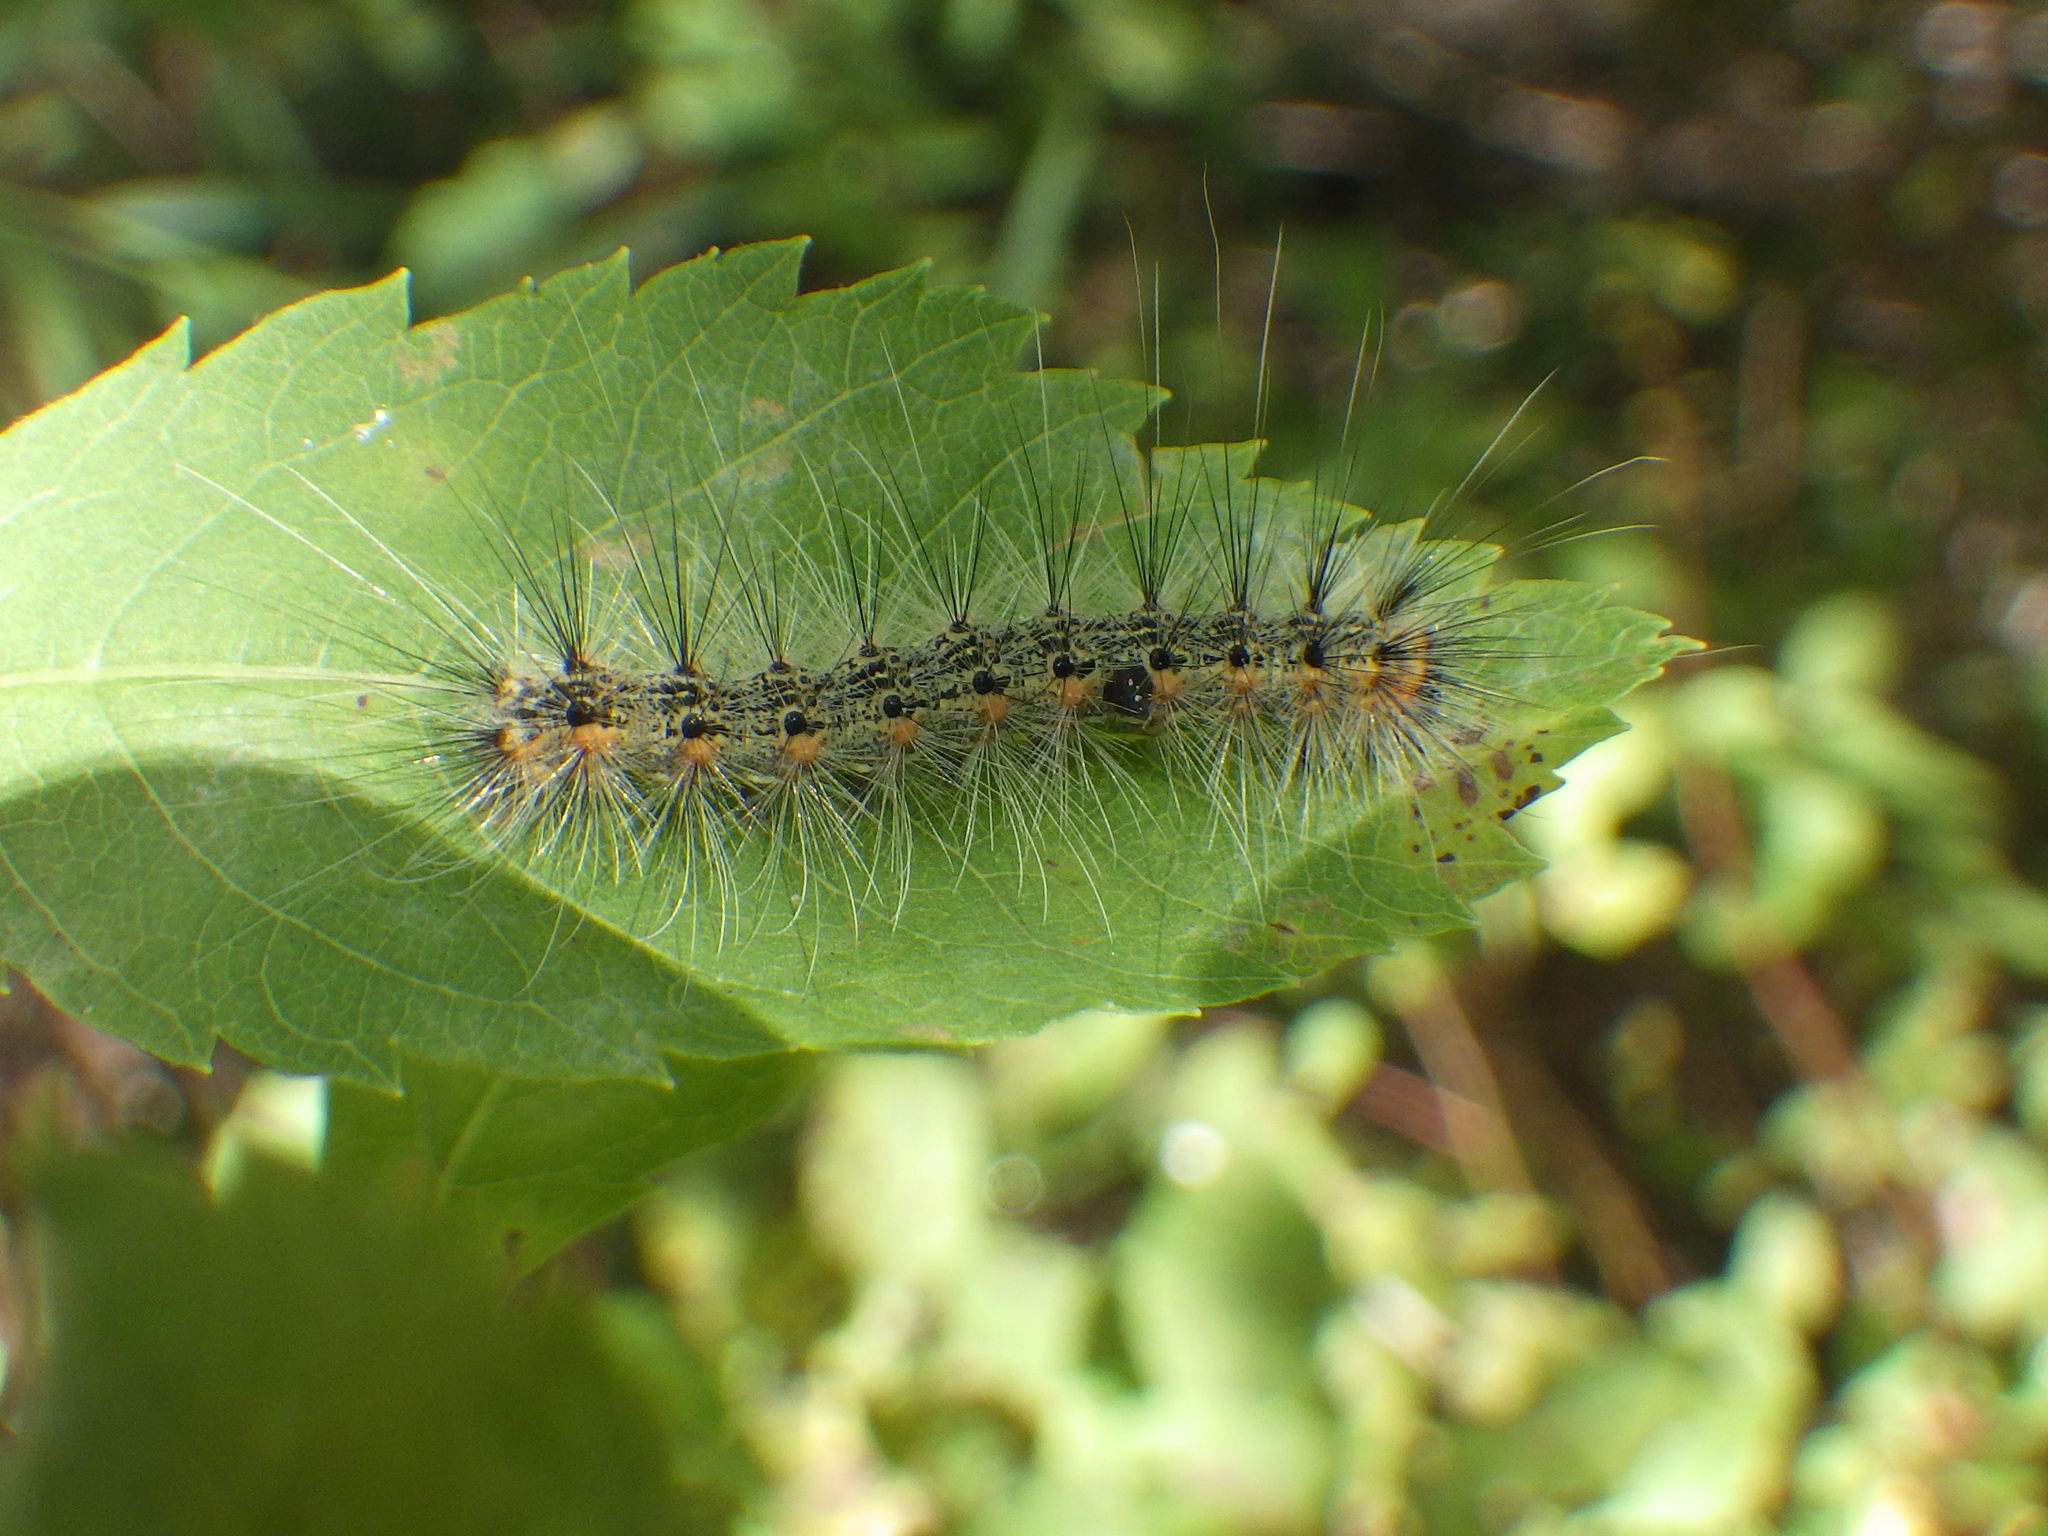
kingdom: Animalia
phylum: Arthropoda
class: Insecta
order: Lepidoptera
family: Erebidae
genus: Hyphantria
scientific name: Hyphantria cunea
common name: American white moth
